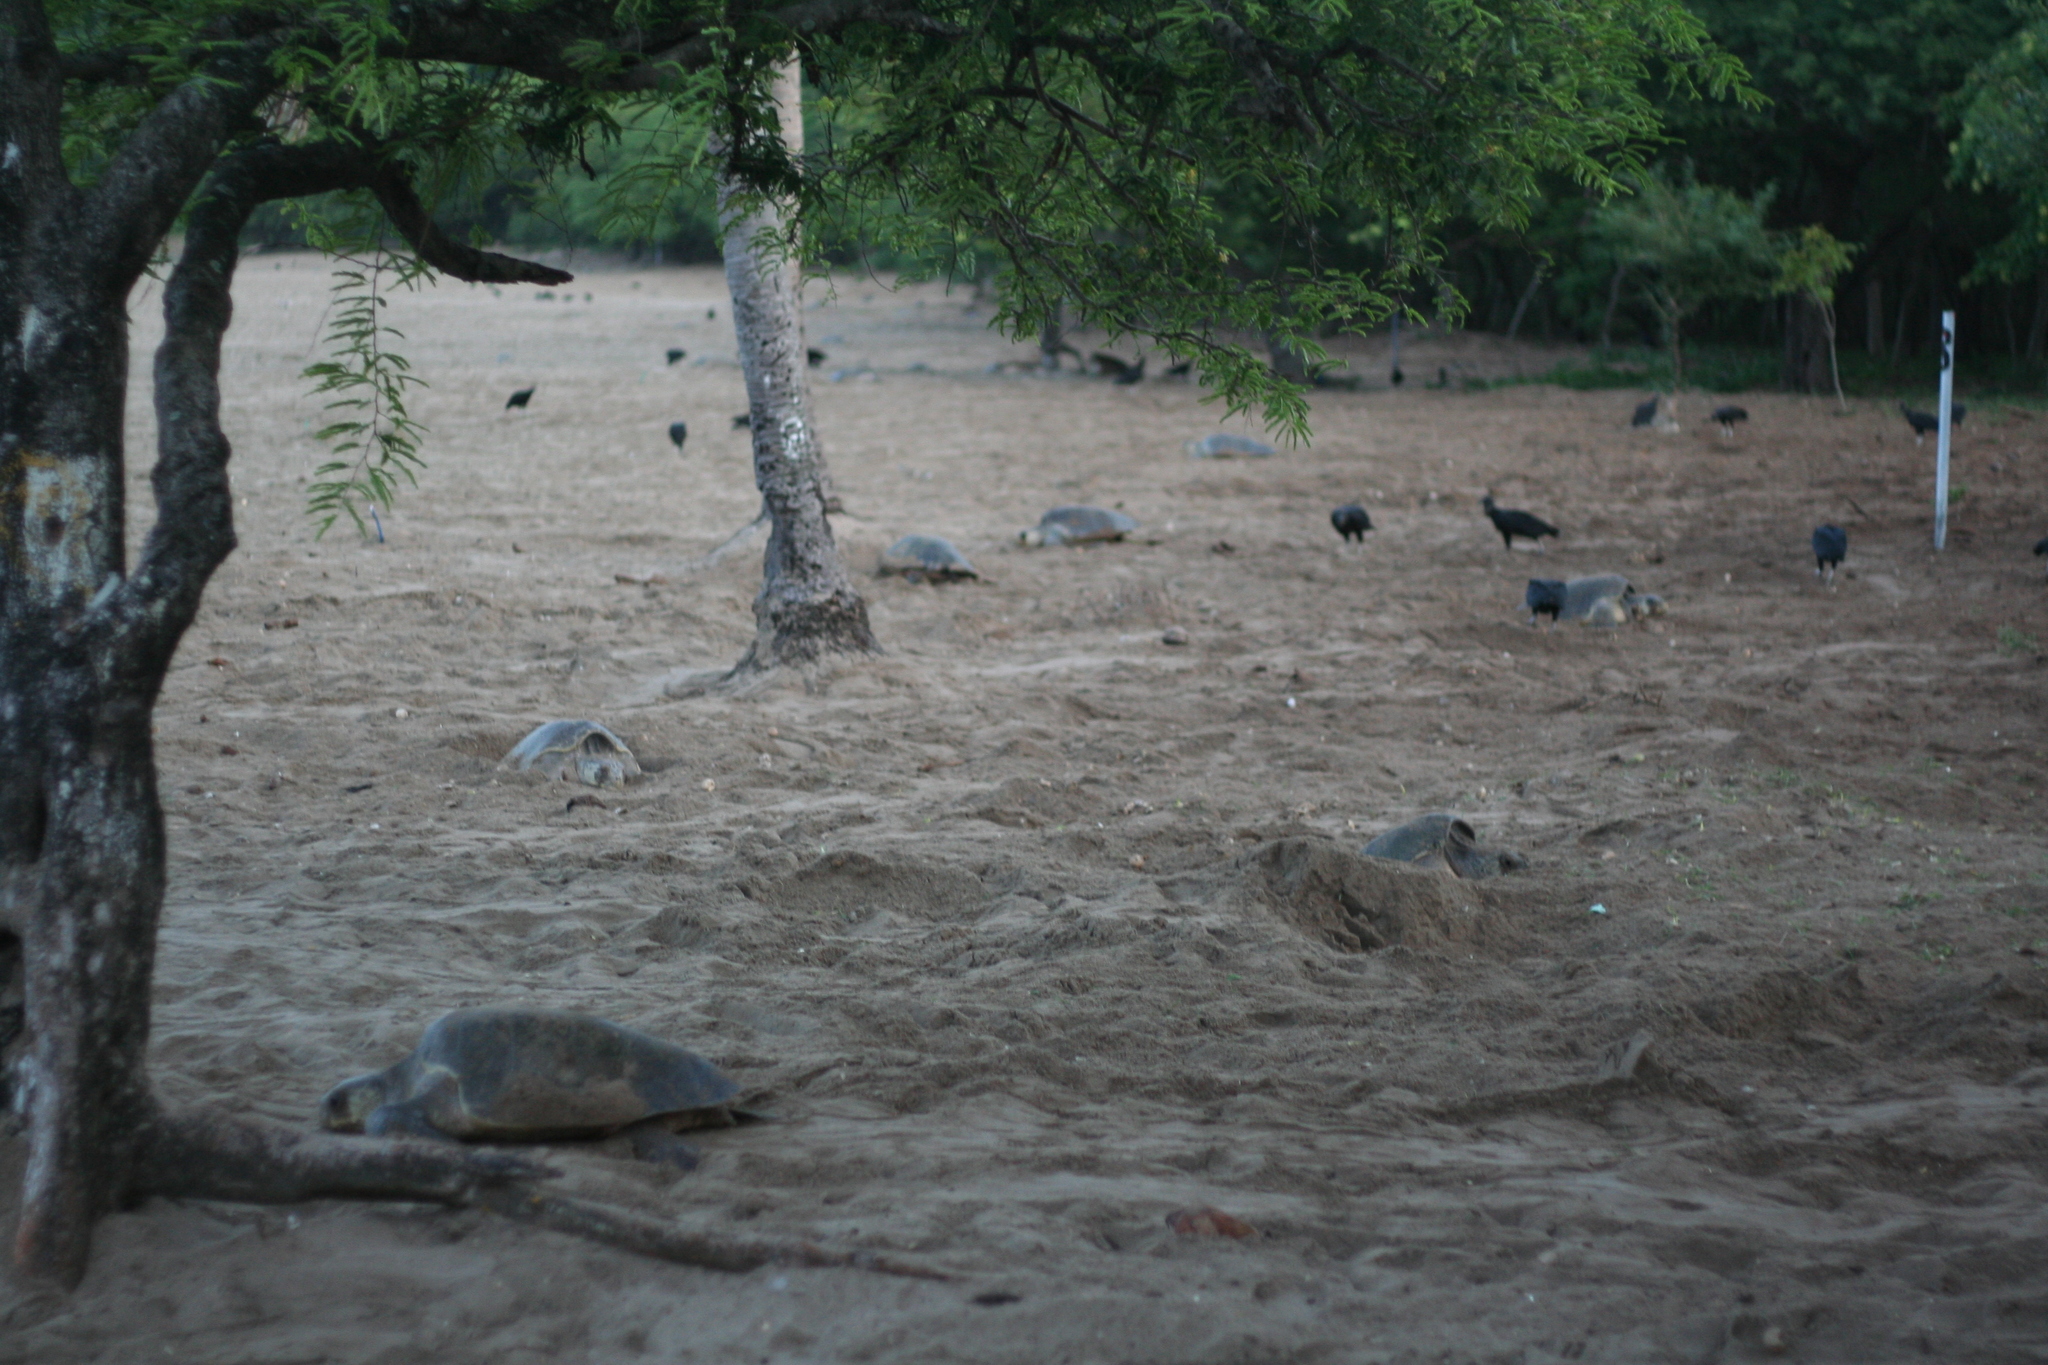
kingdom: Animalia
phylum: Chordata
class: Testudines
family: Cheloniidae
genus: Lepidochelys
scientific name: Lepidochelys olivacea
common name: Olive ridley
